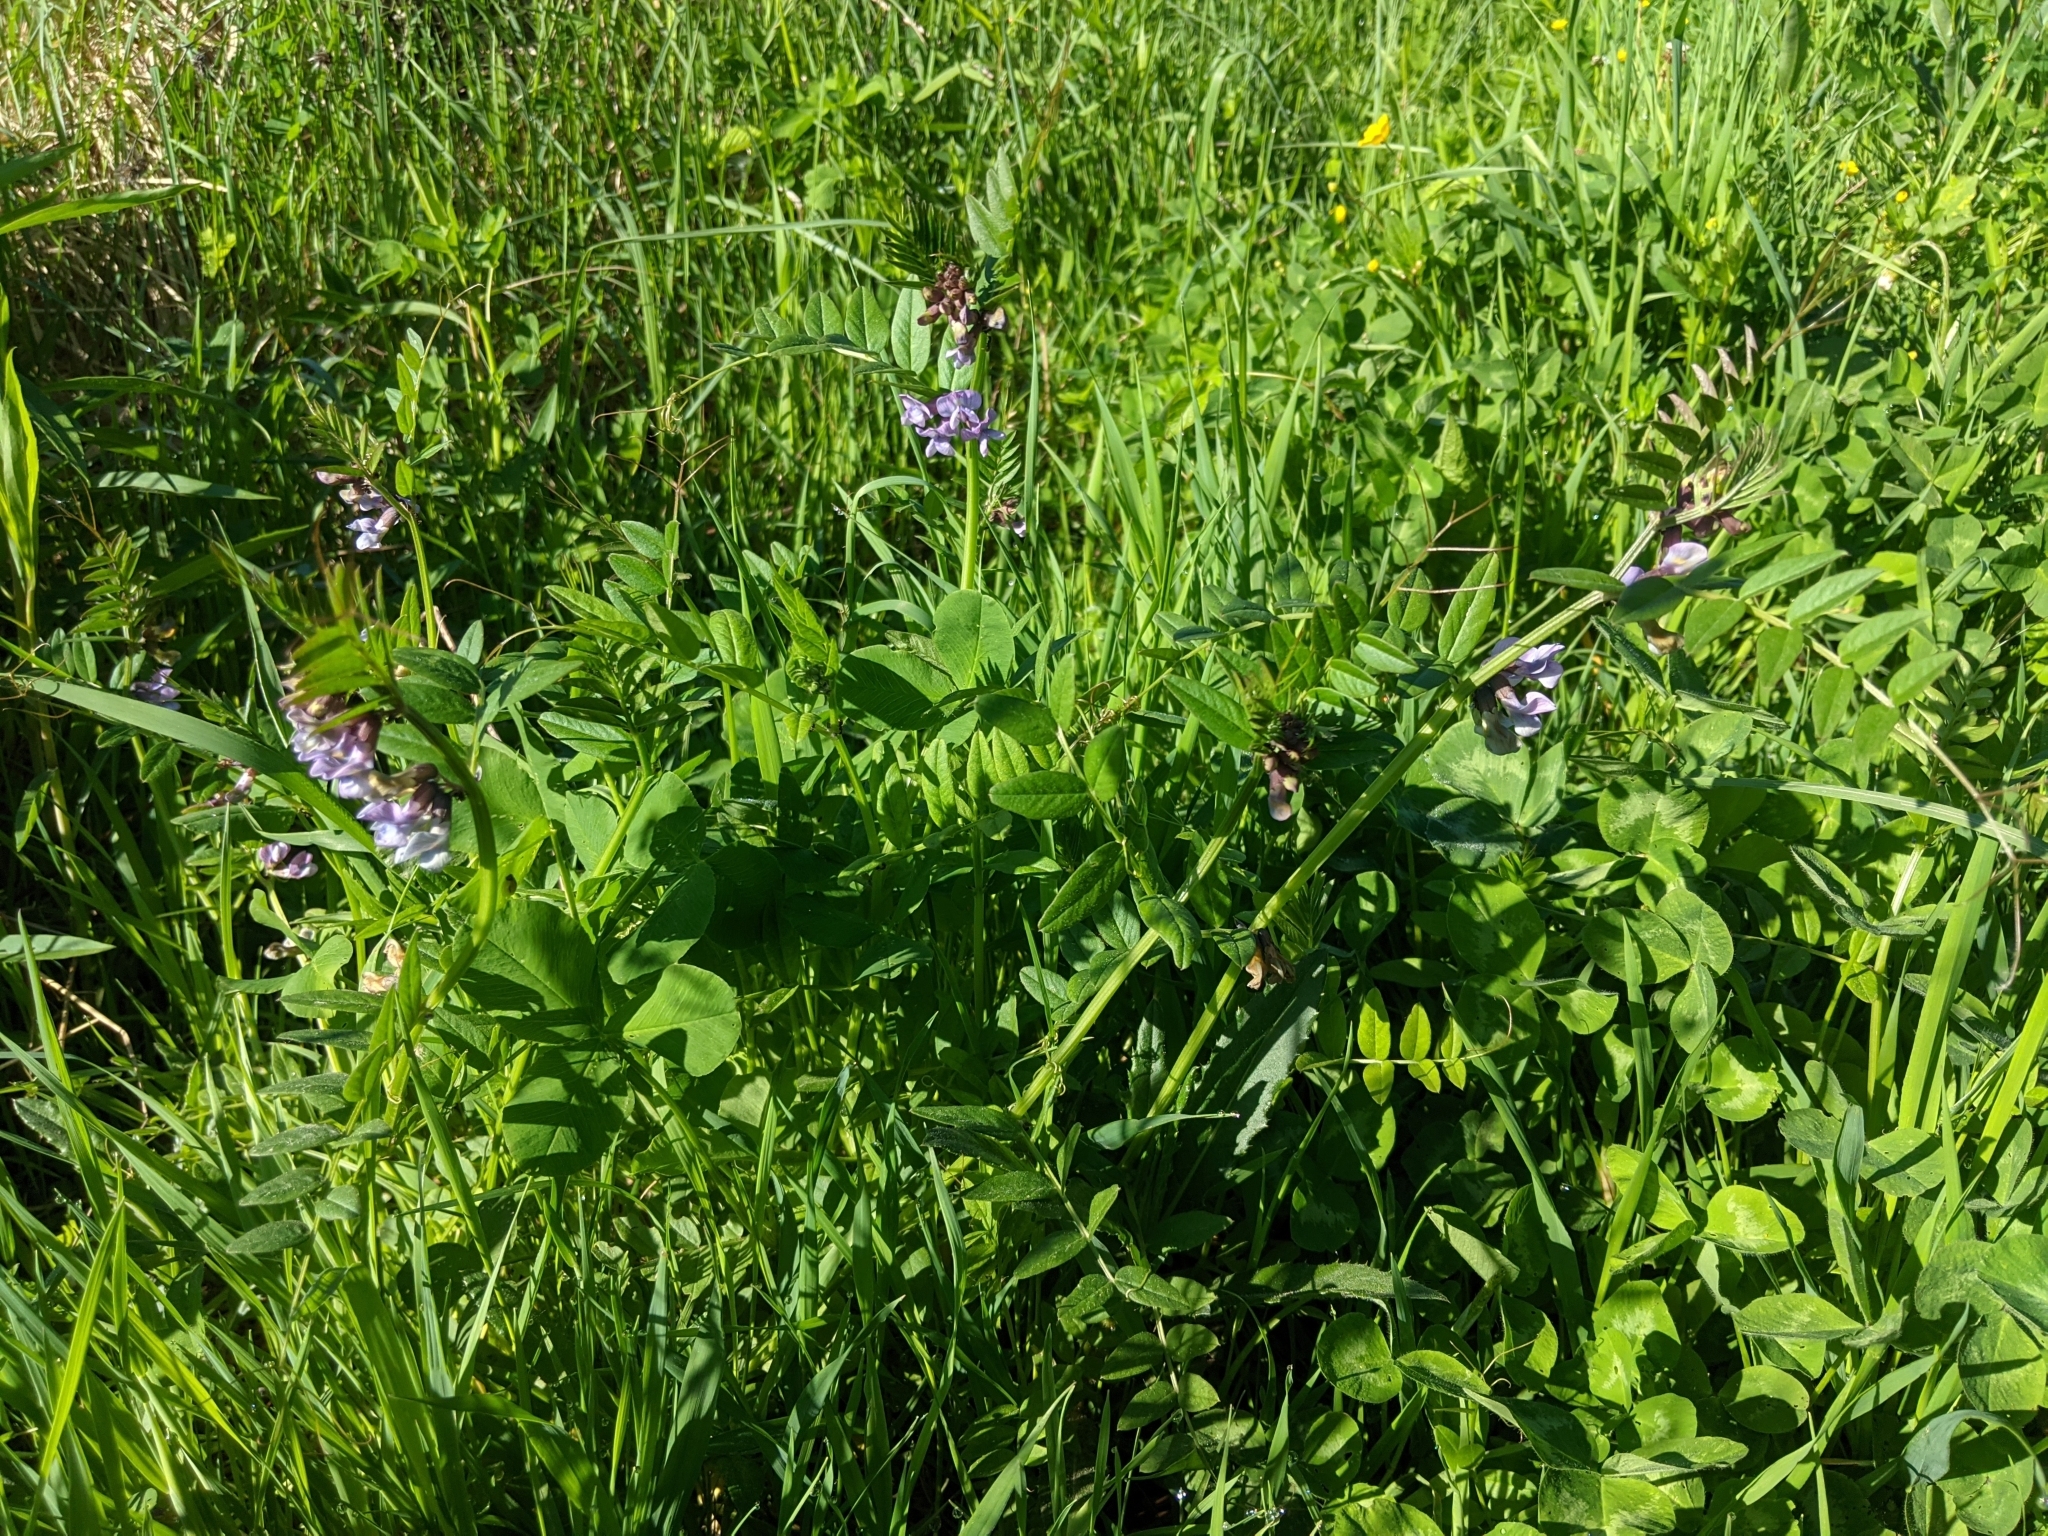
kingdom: Plantae
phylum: Tracheophyta
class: Magnoliopsida
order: Fabales
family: Fabaceae
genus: Vicia
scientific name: Vicia sepium
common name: Bush vetch
